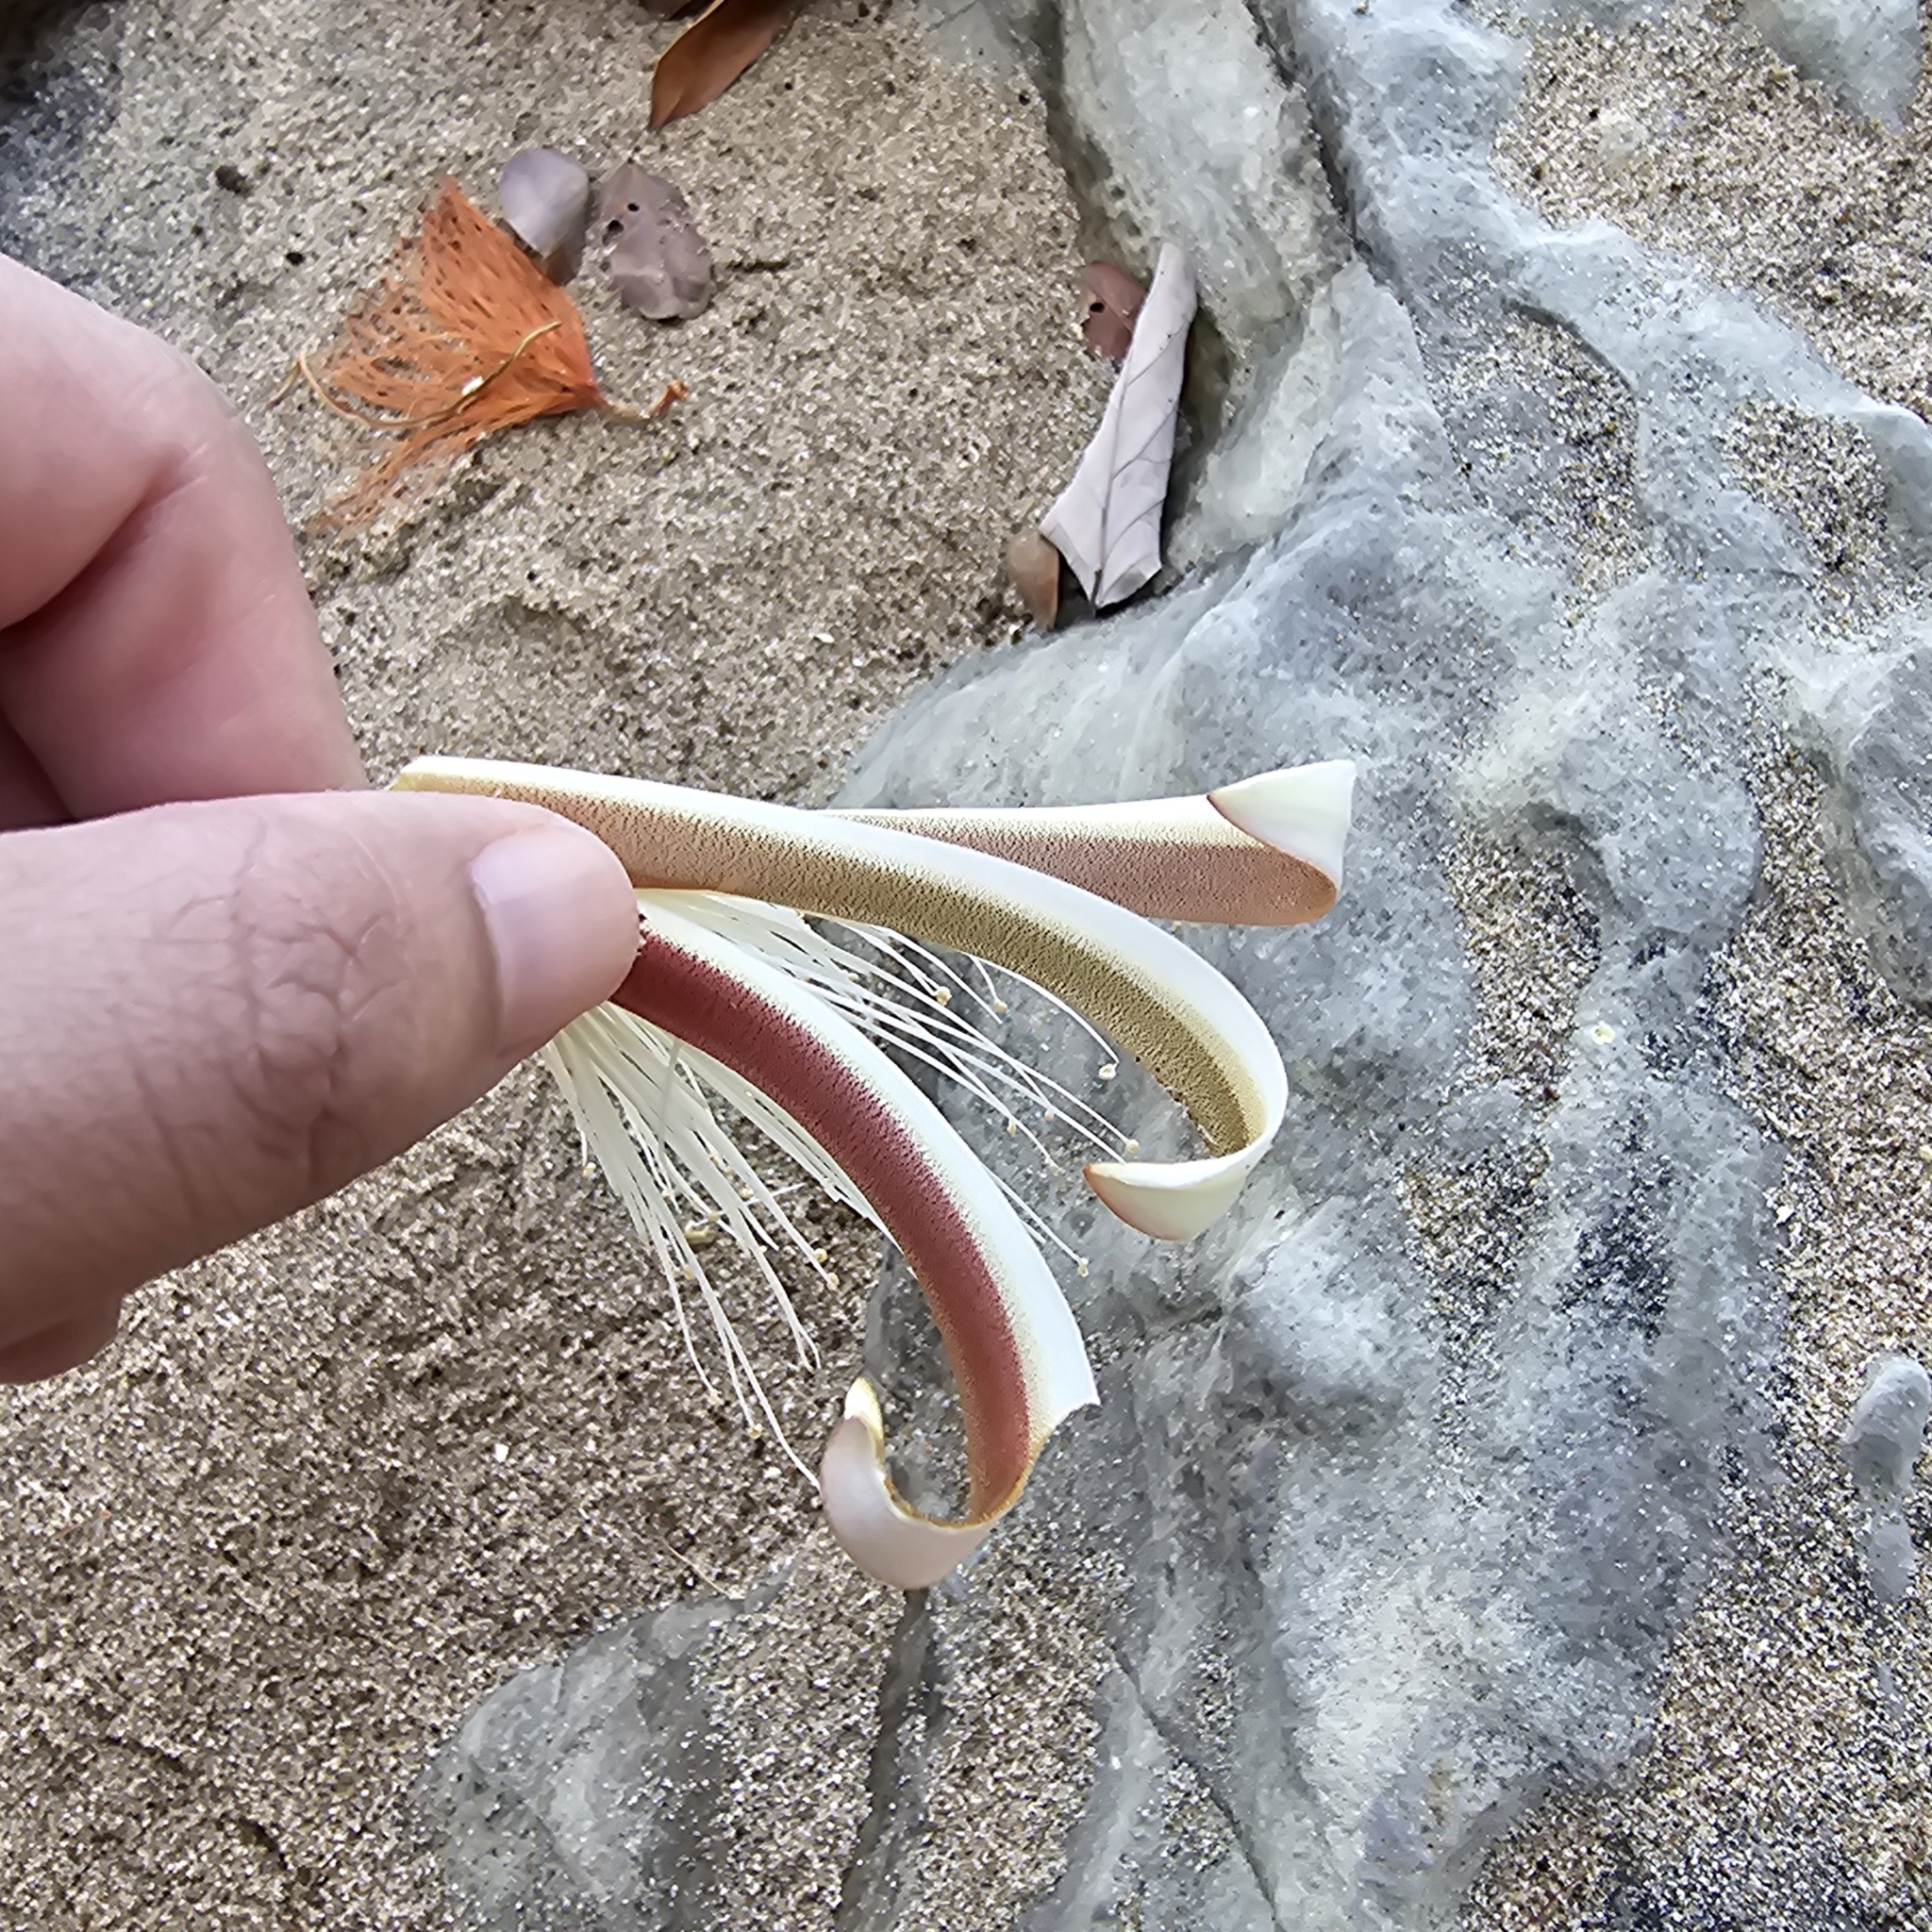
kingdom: Plantae
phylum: Tracheophyta
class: Magnoliopsida
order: Malvales
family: Malvaceae
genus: Pochota
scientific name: Pochota fendleri
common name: Chestnut
